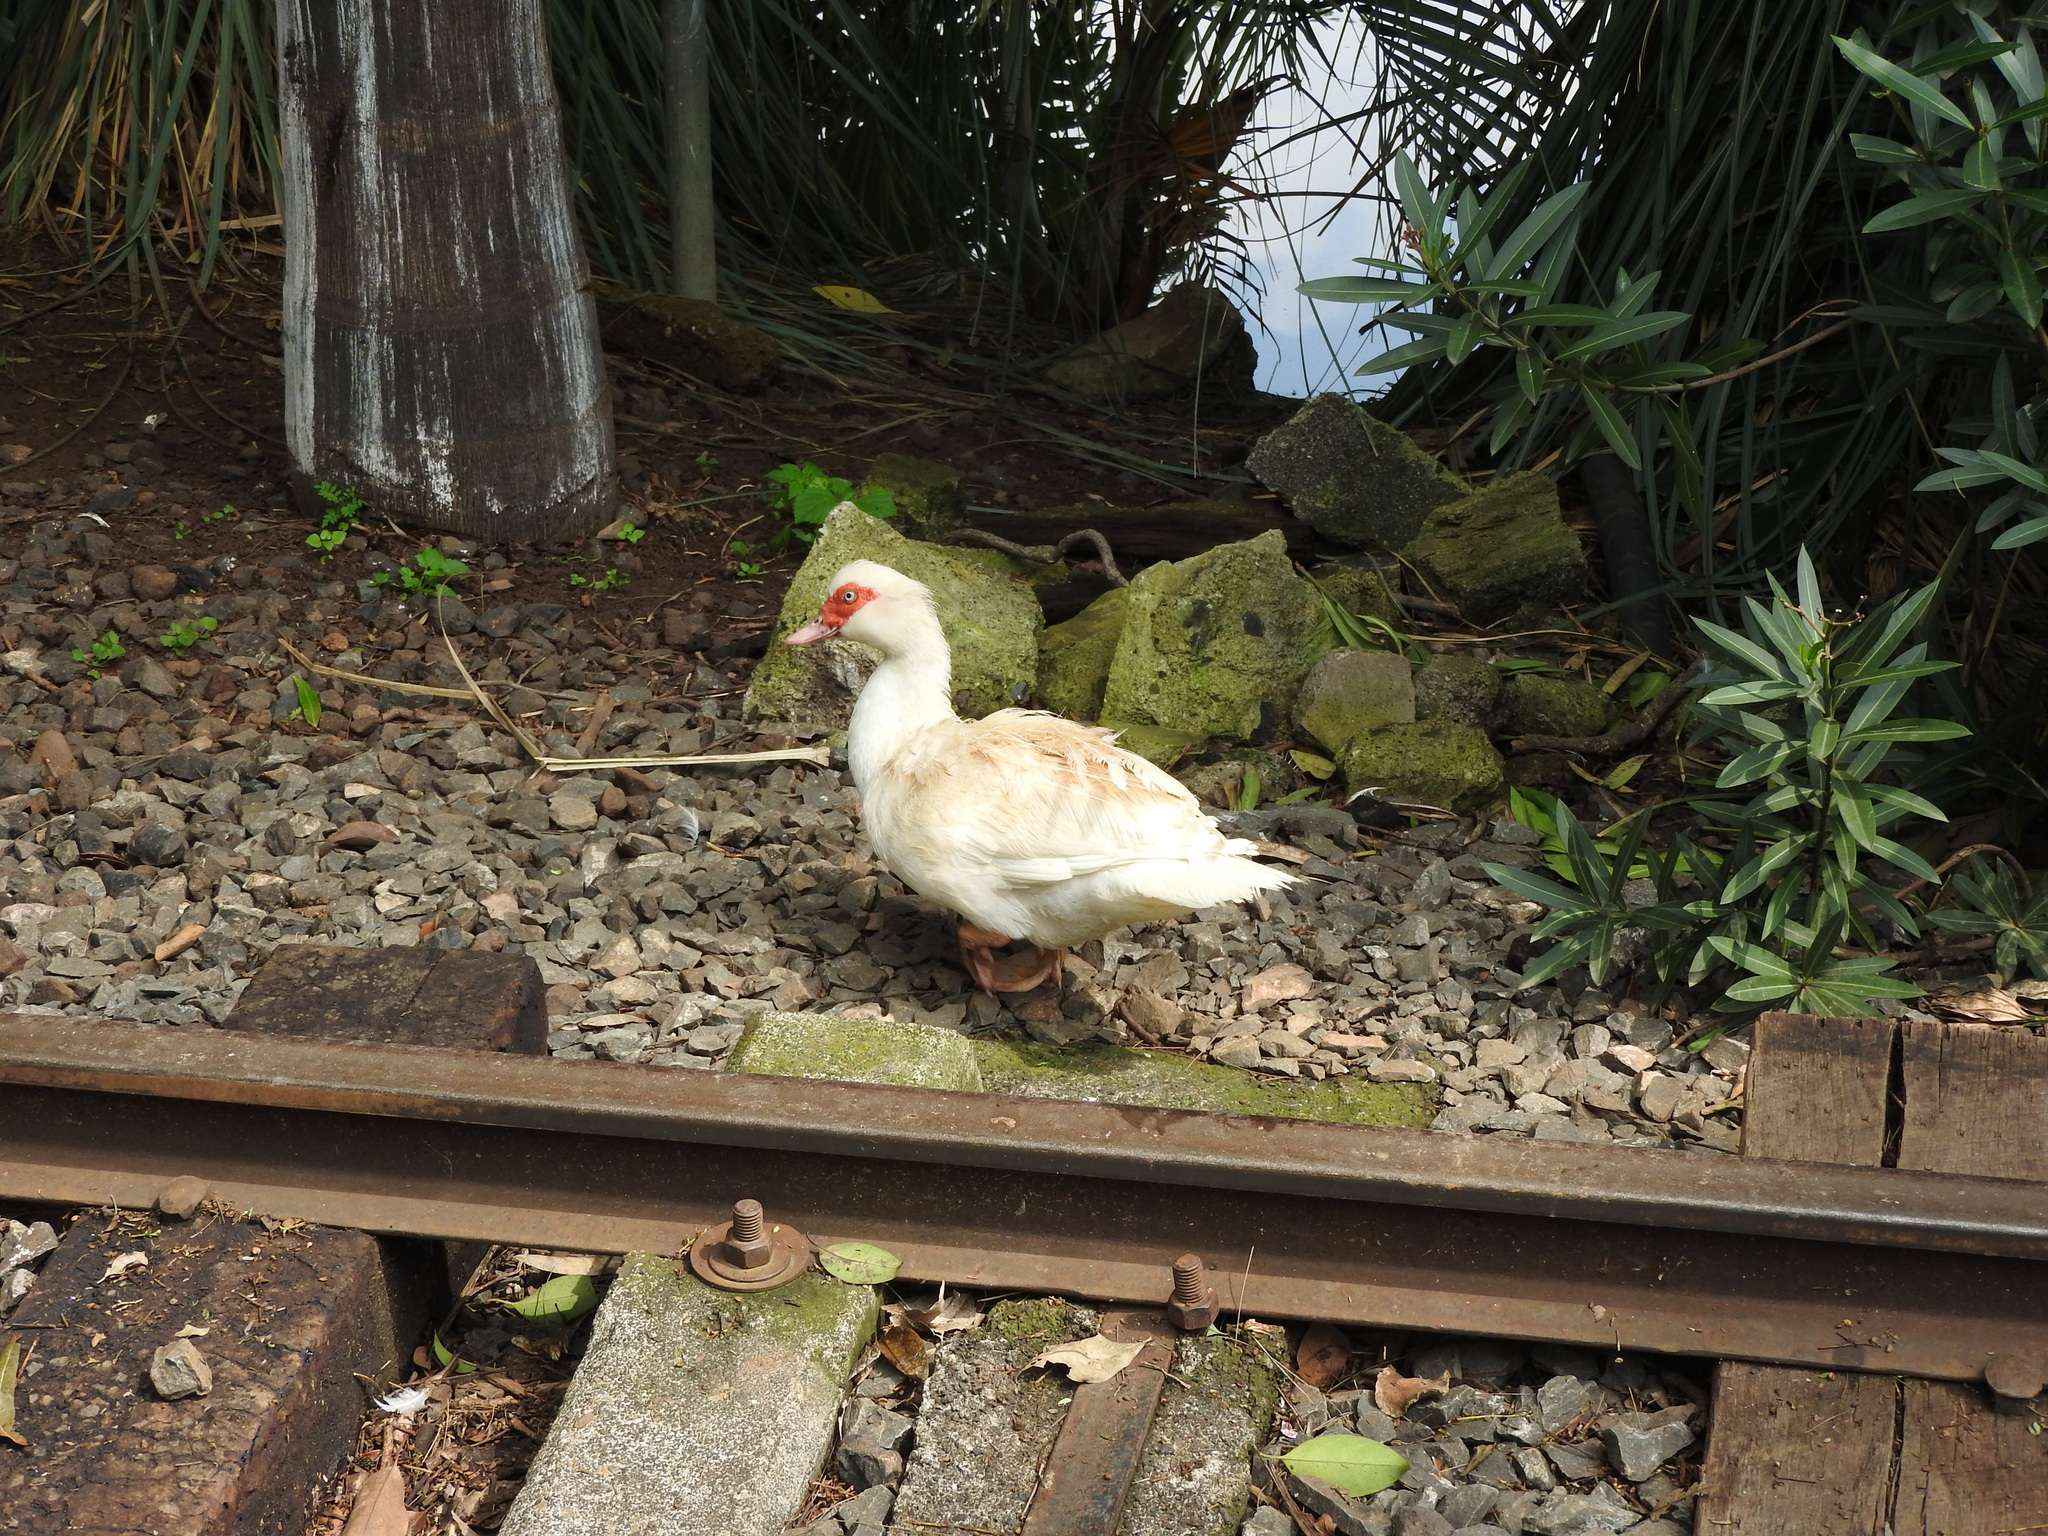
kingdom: Animalia
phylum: Chordata
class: Aves
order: Anseriformes
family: Anatidae
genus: Cairina
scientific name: Cairina moschata
